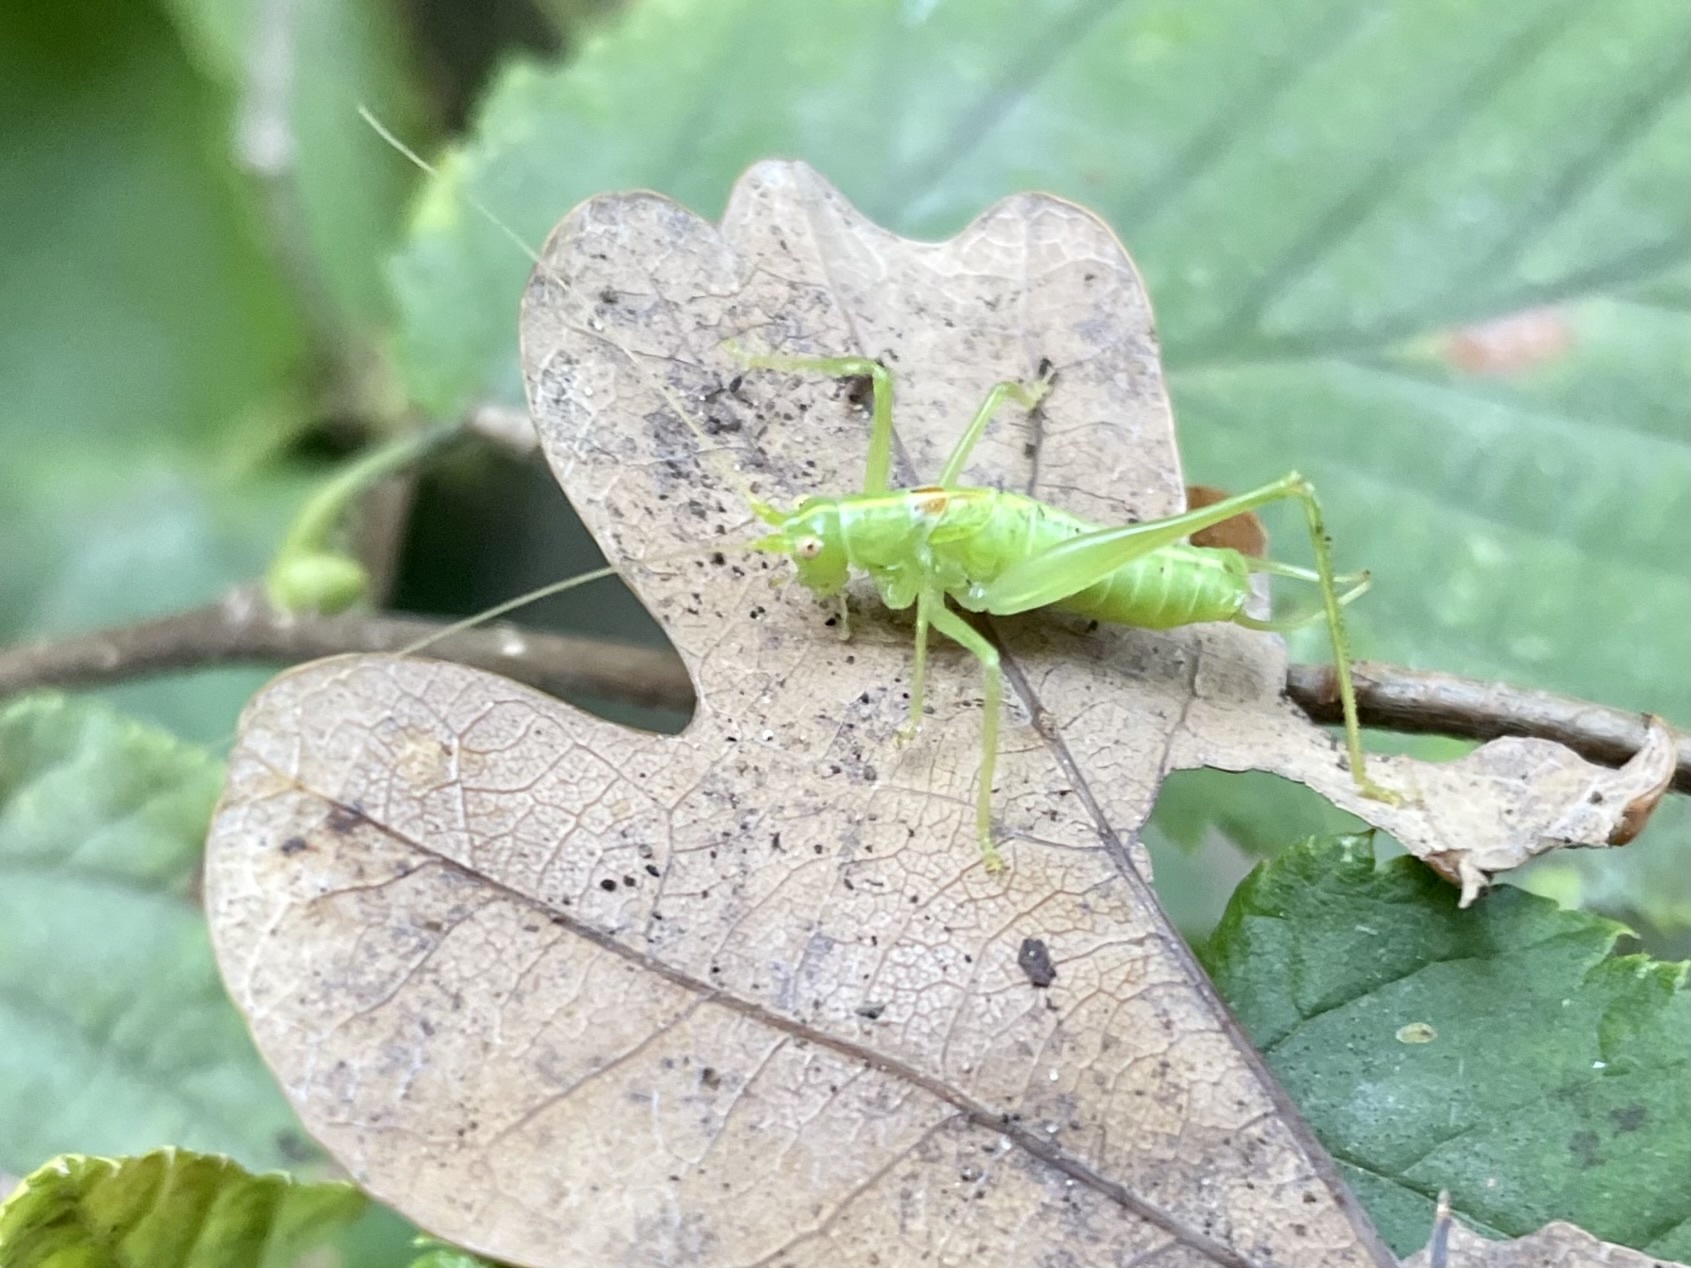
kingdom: Animalia
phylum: Arthropoda
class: Insecta
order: Orthoptera
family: Tettigoniidae
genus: Meconema
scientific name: Meconema meridionale
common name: Southern oak bush-cricket
